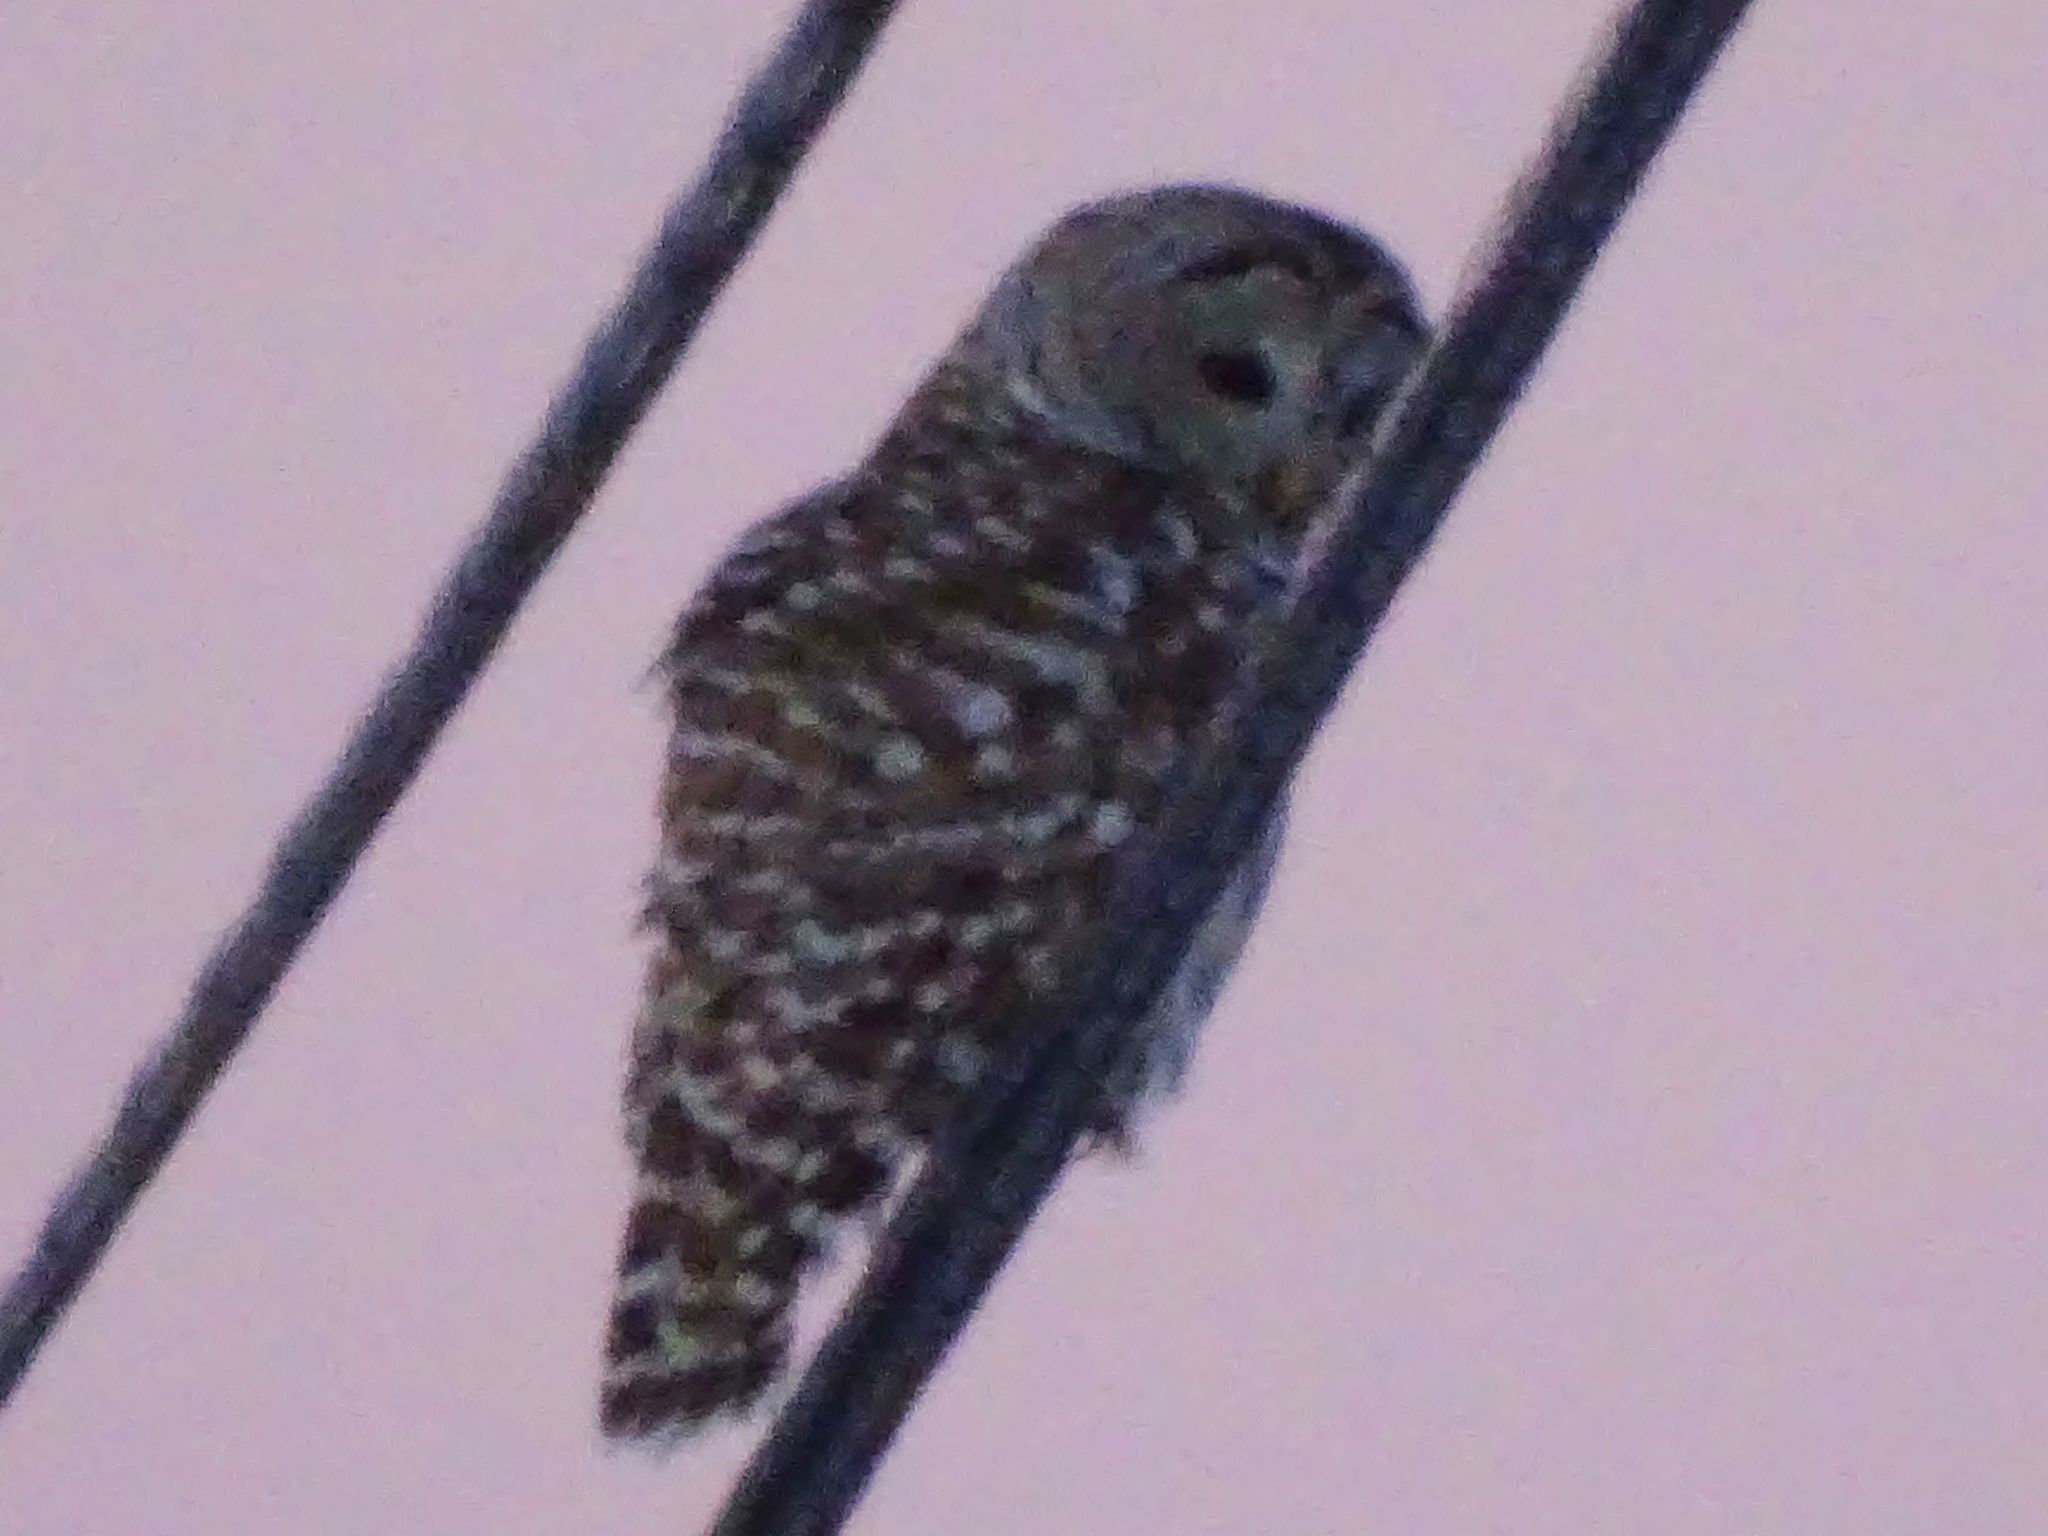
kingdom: Animalia
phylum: Chordata
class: Aves
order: Strigiformes
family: Strigidae
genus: Strix
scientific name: Strix varia
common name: Barred owl
